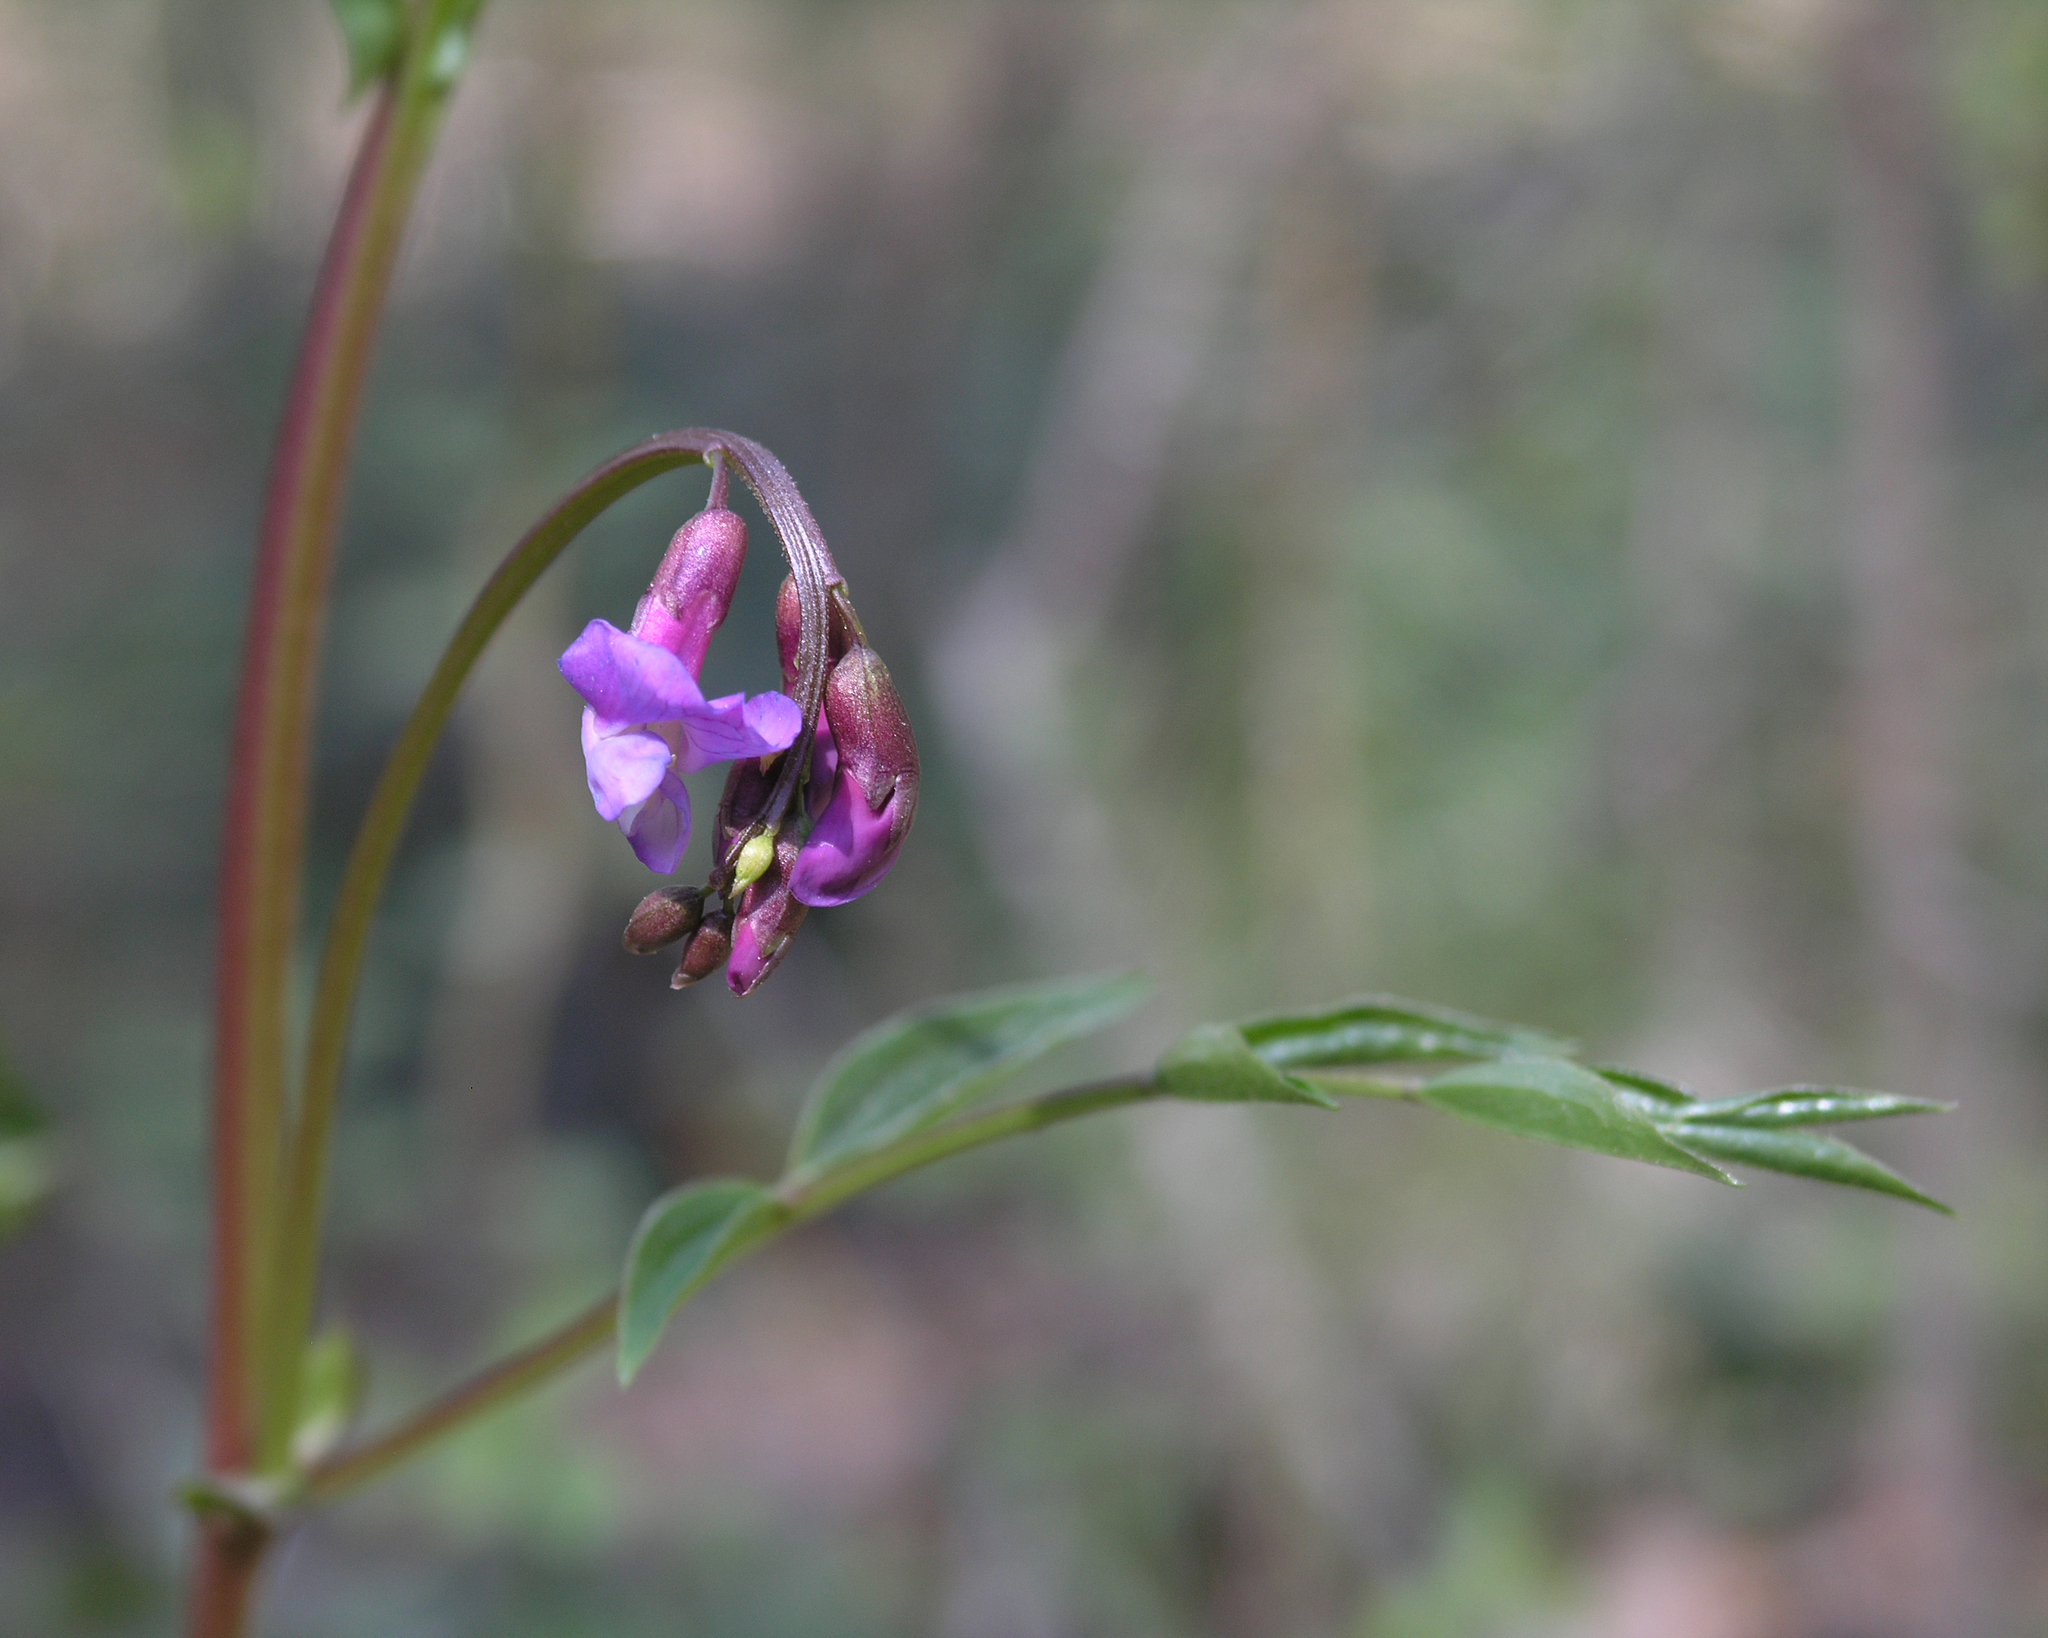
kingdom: Plantae
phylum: Tracheophyta
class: Magnoliopsida
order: Fabales
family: Fabaceae
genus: Lathyrus
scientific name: Lathyrus vernus
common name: Spring pea
